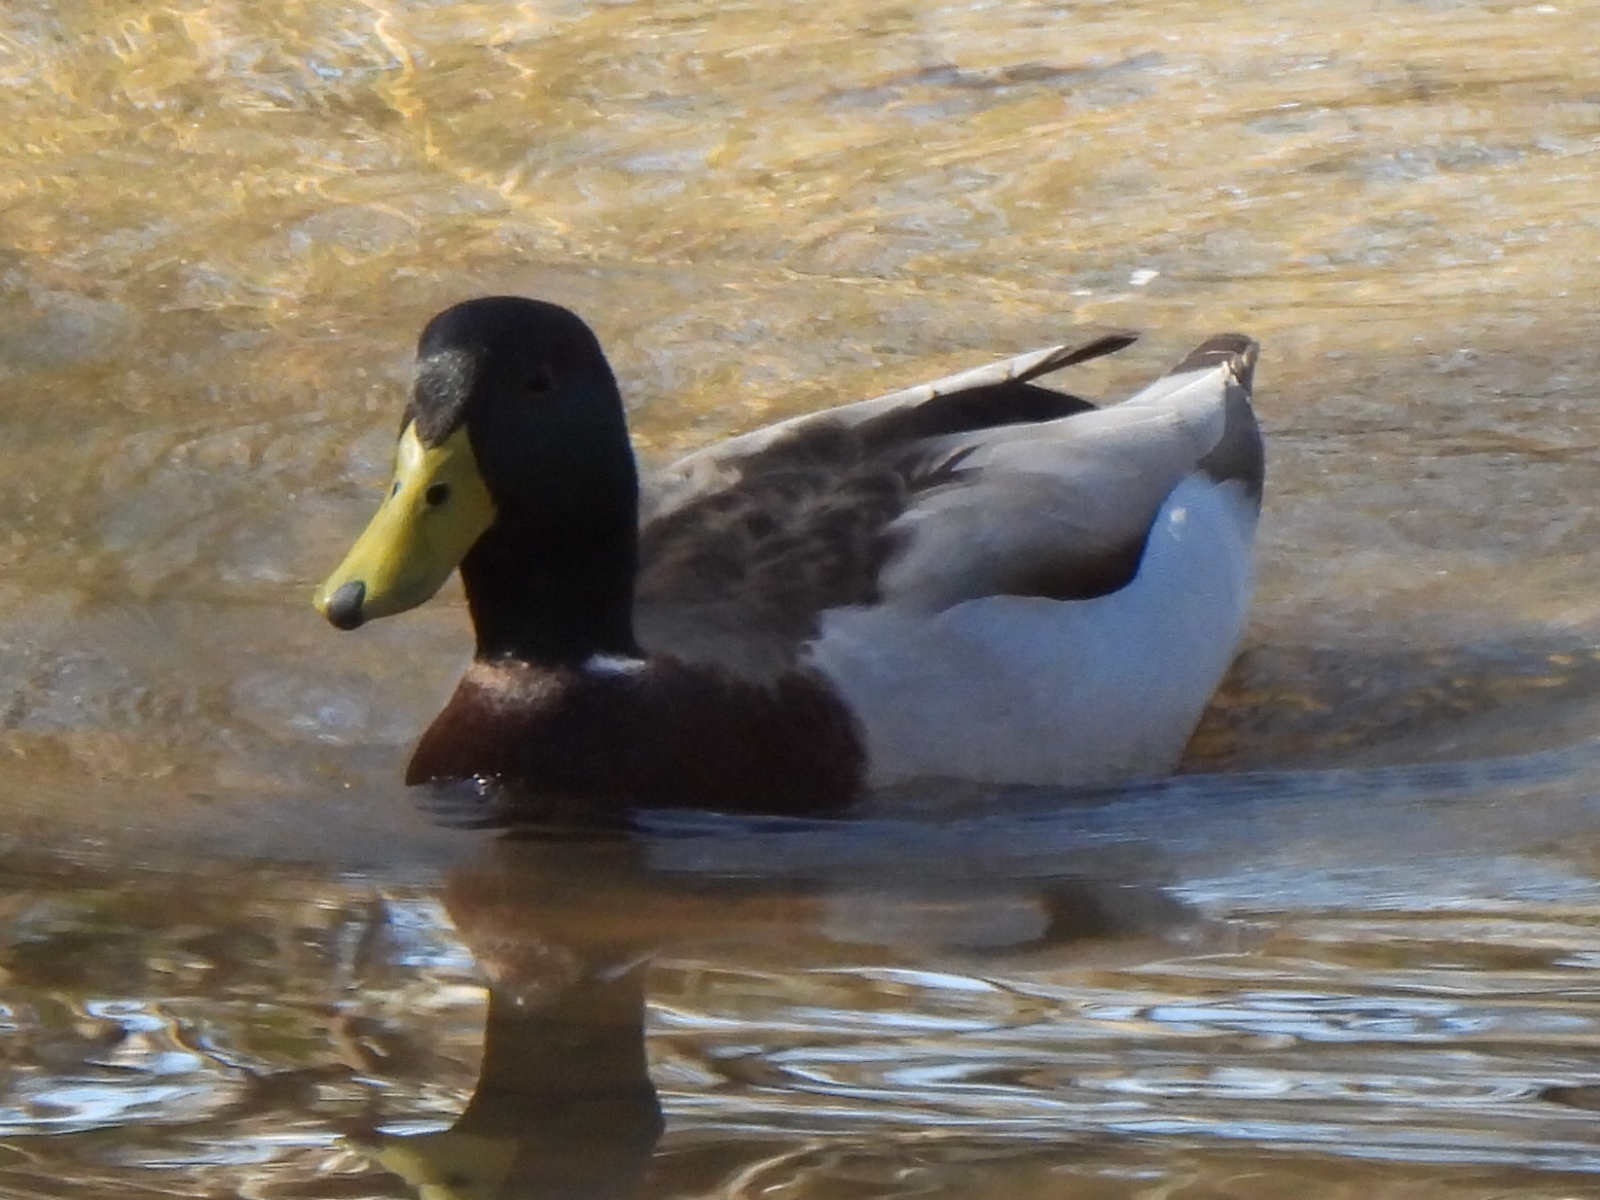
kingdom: Animalia
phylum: Chordata
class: Aves
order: Anseriformes
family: Anatidae
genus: Anas
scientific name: Anas platyrhynchos
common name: Mallard
